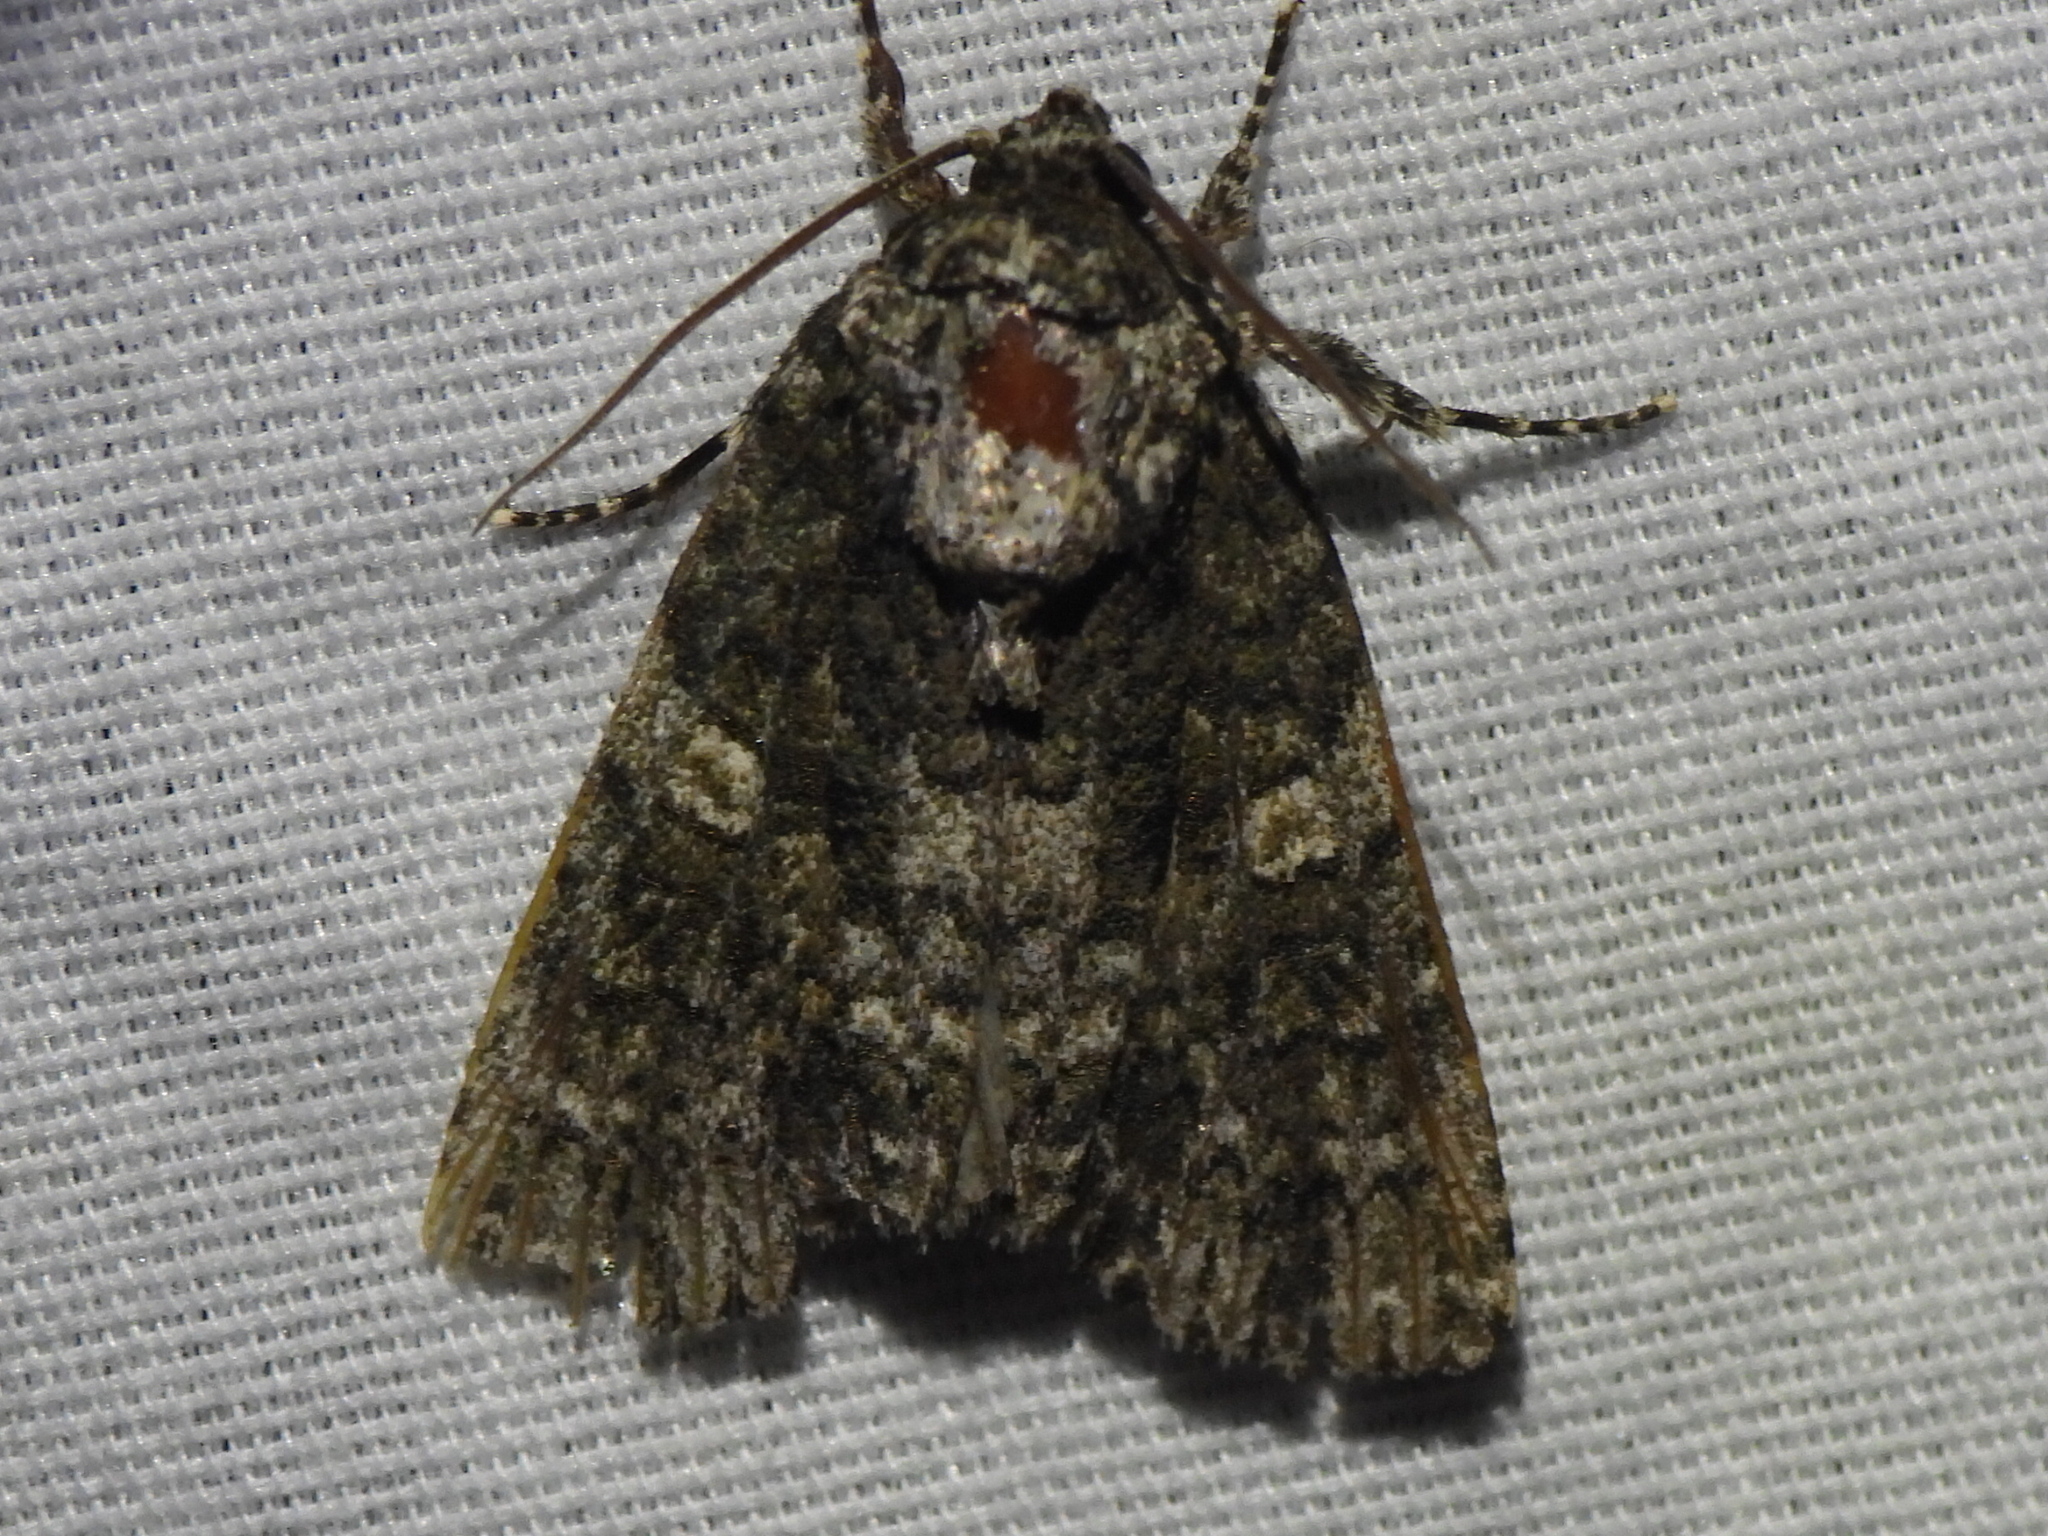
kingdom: Animalia
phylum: Arthropoda
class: Insecta
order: Lepidoptera
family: Noctuidae
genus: Acronicta
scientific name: Acronicta afflicta
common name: Afflicted dagger moth
